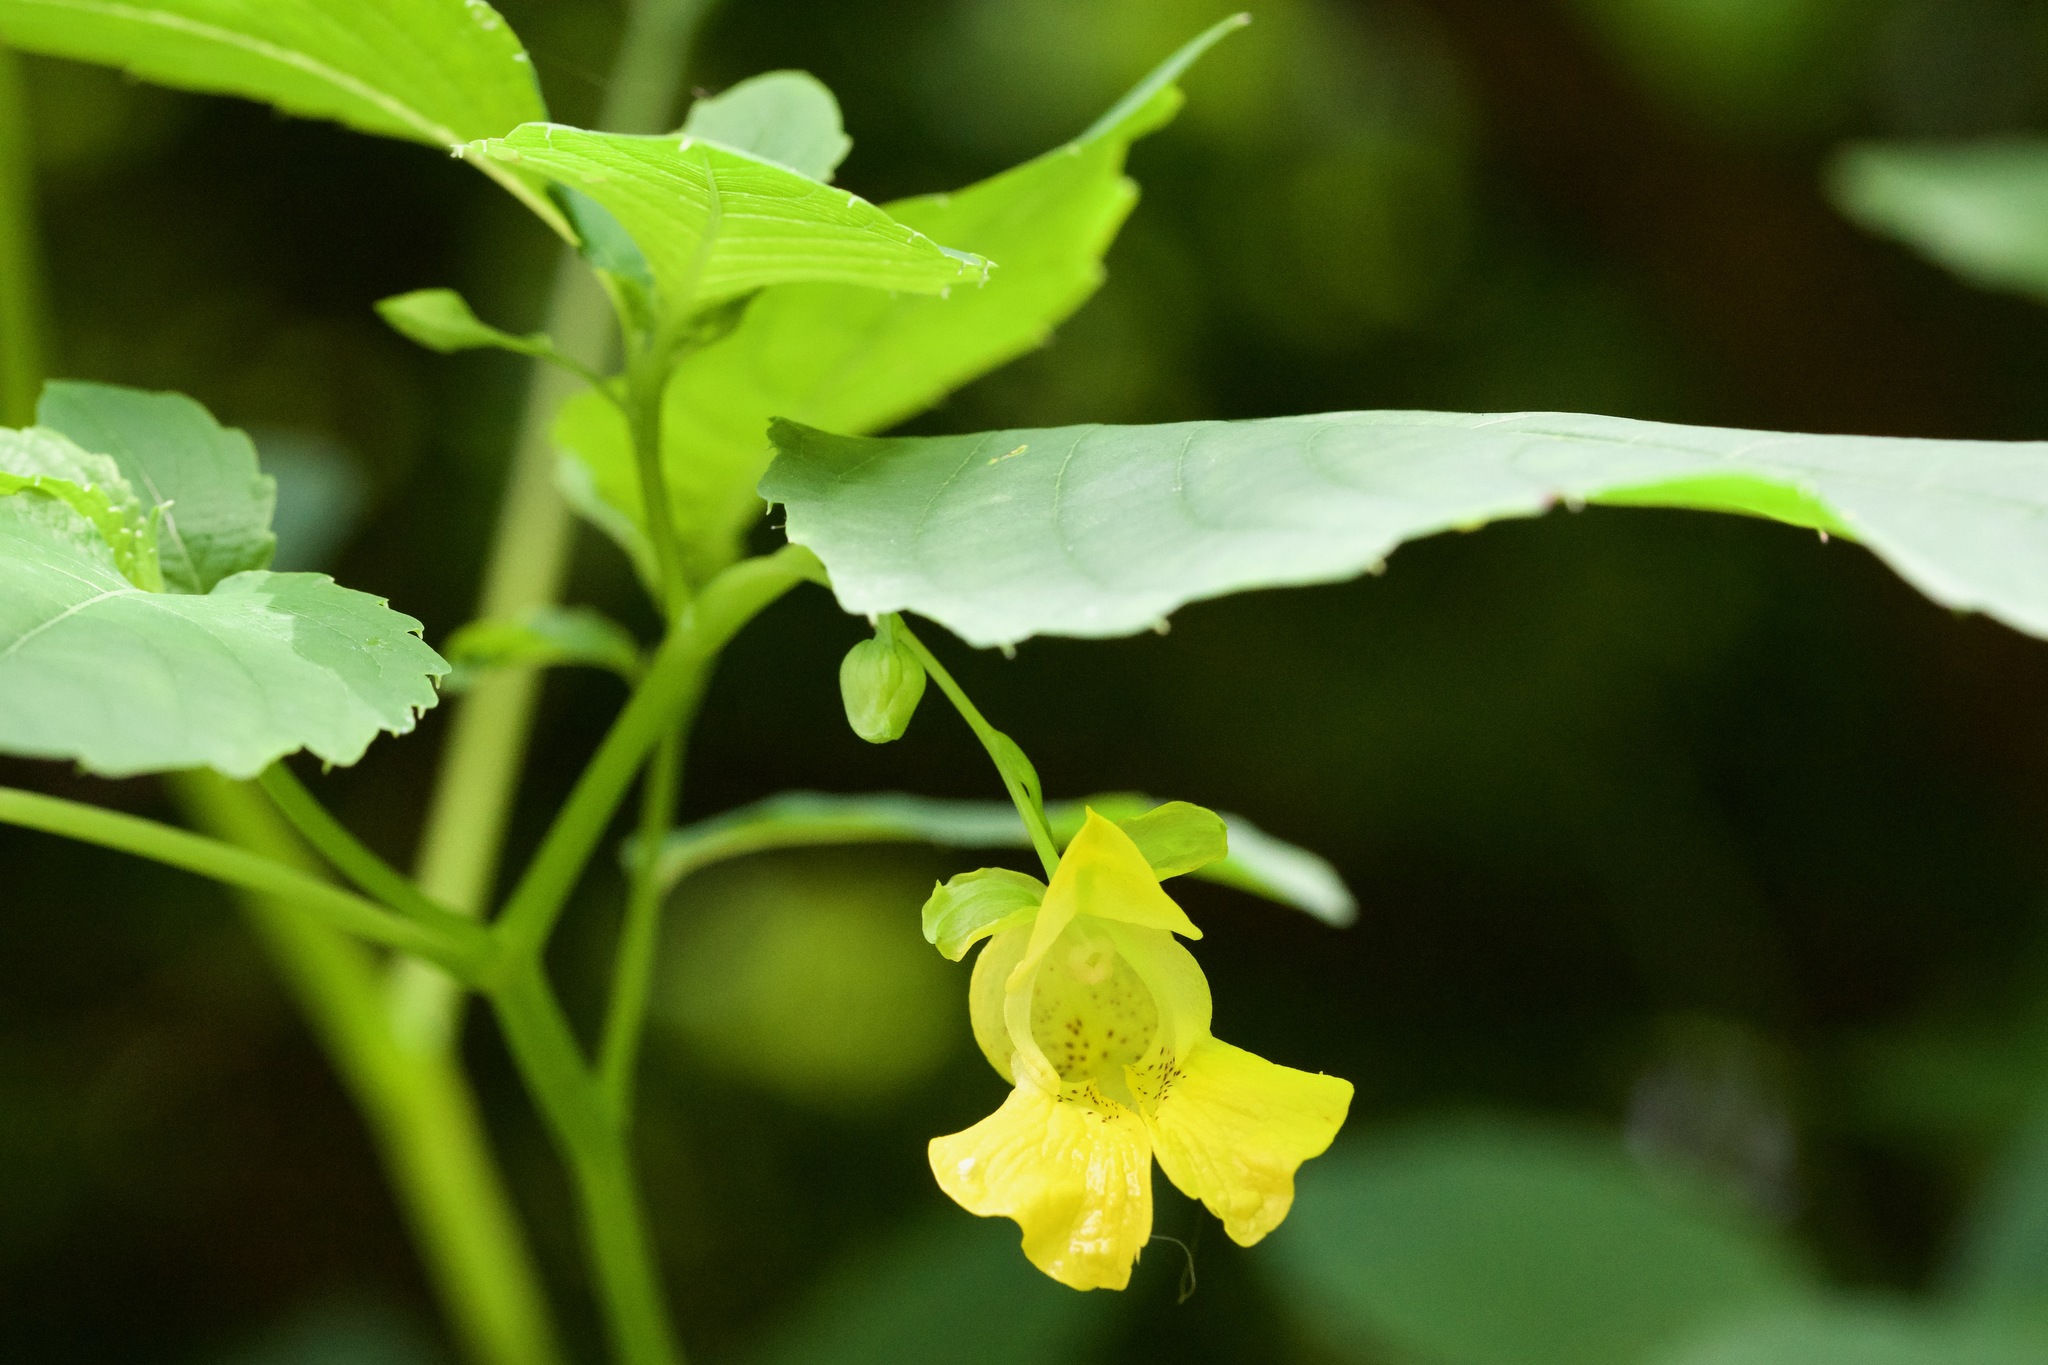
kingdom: Plantae
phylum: Tracheophyta
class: Magnoliopsida
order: Ericales
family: Balsaminaceae
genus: Impatiens
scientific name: Impatiens pallida
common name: Pale snapweed
